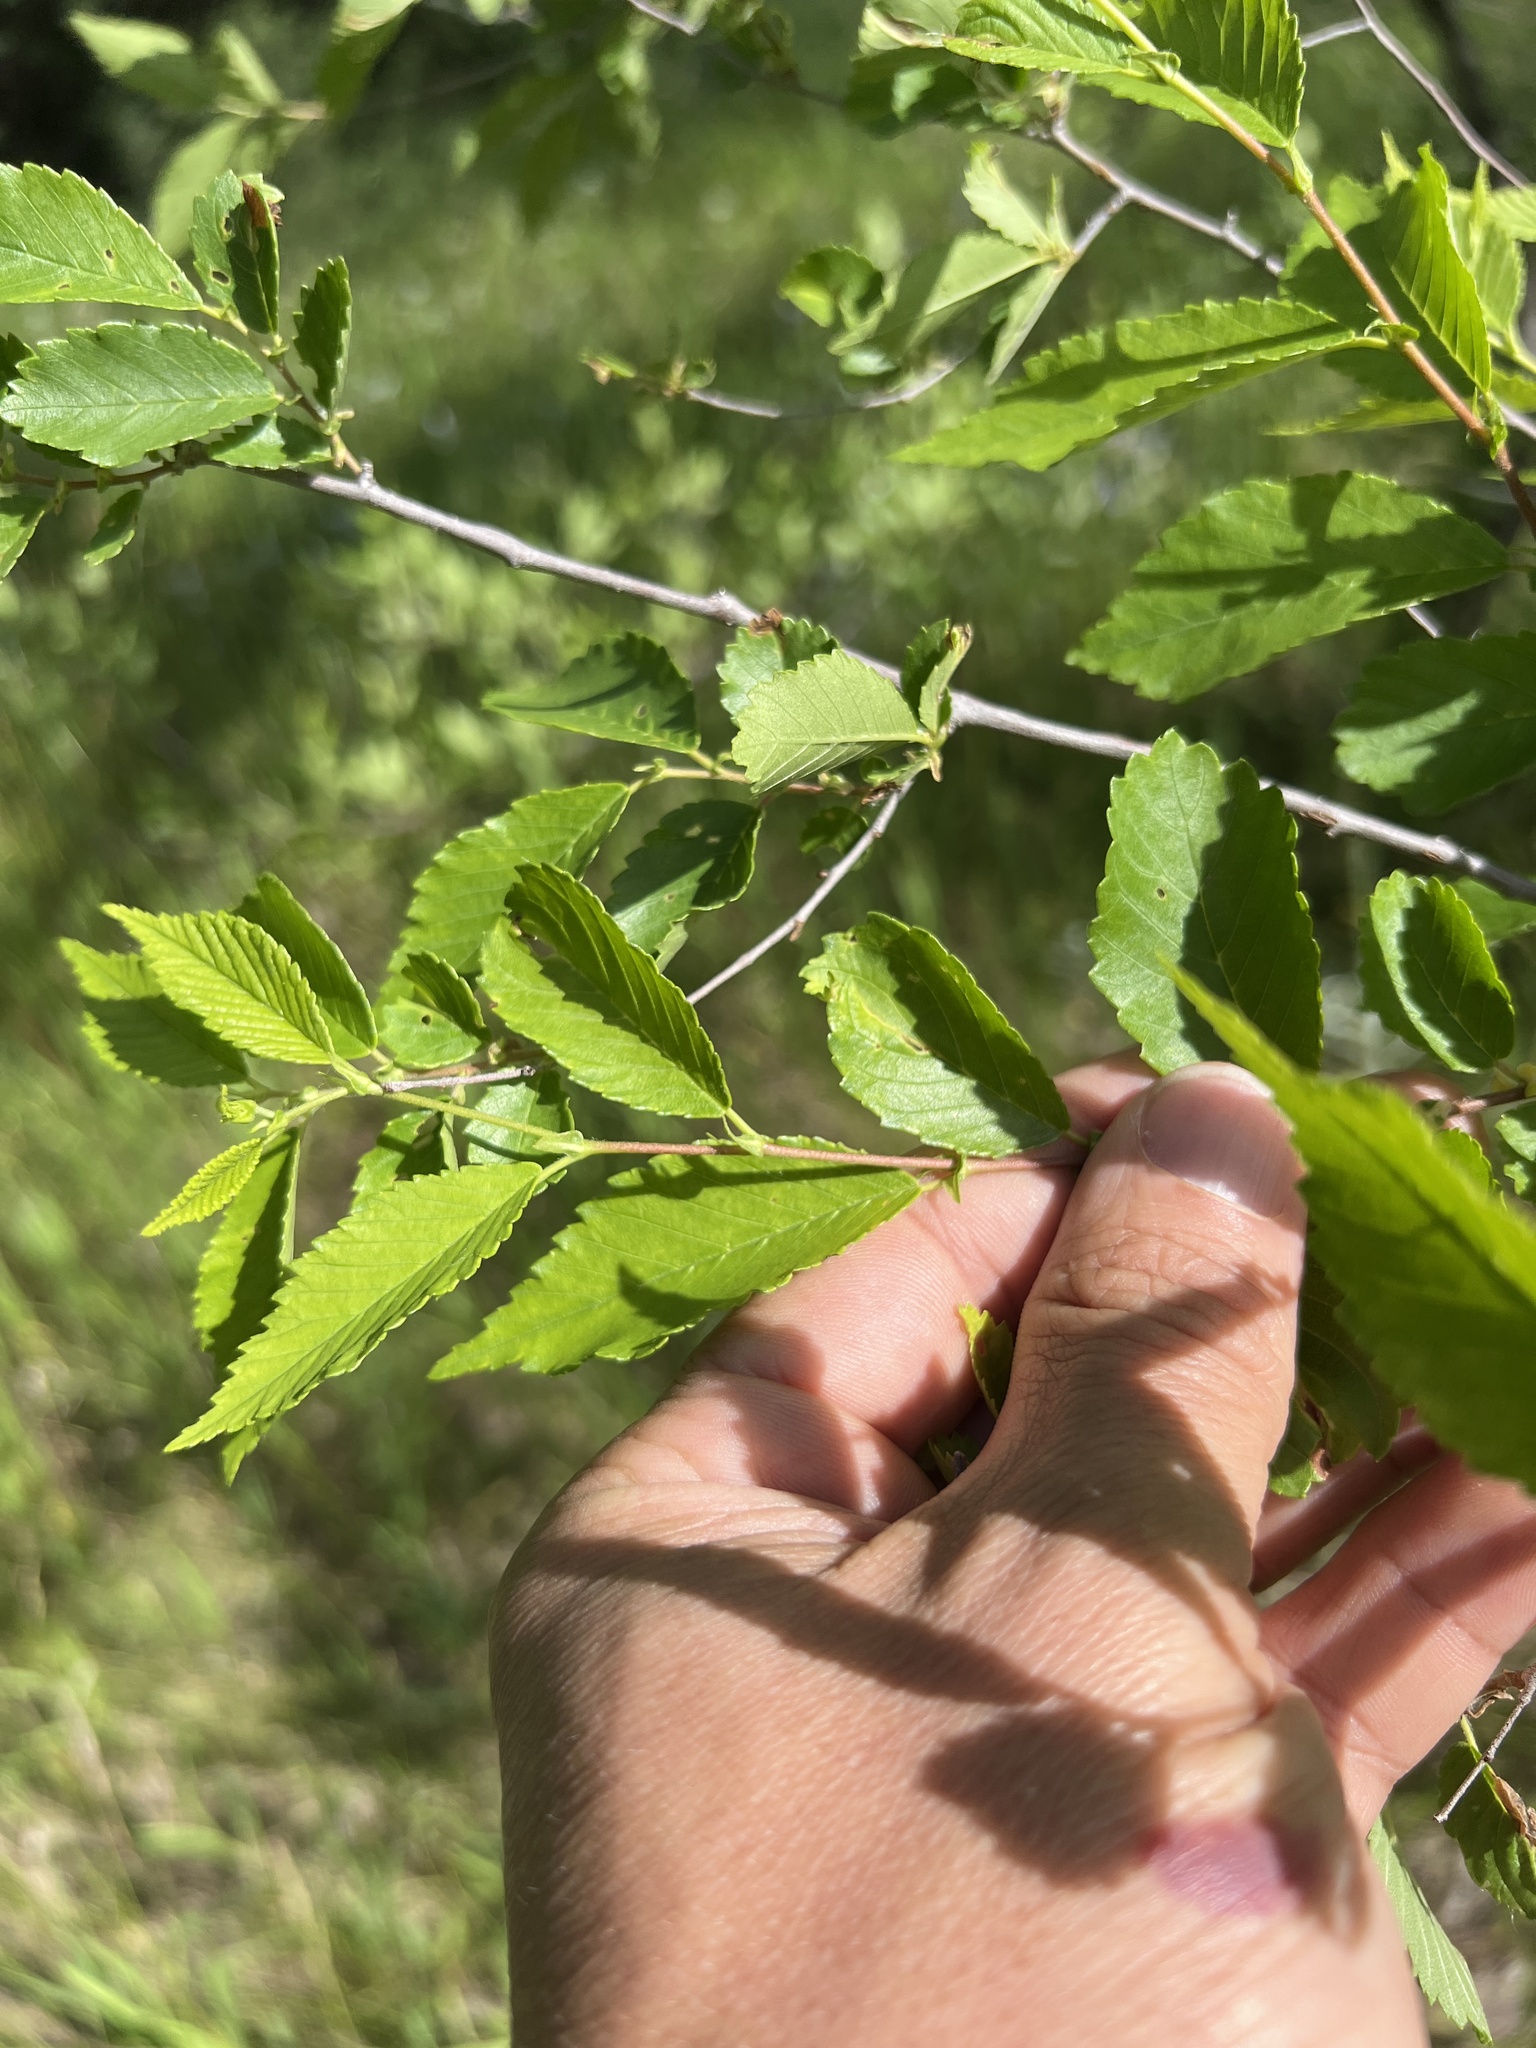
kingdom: Plantae
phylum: Tracheophyta
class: Magnoliopsida
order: Rosales
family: Ulmaceae
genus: Ulmus
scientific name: Ulmus pumila
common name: Siberian elm
